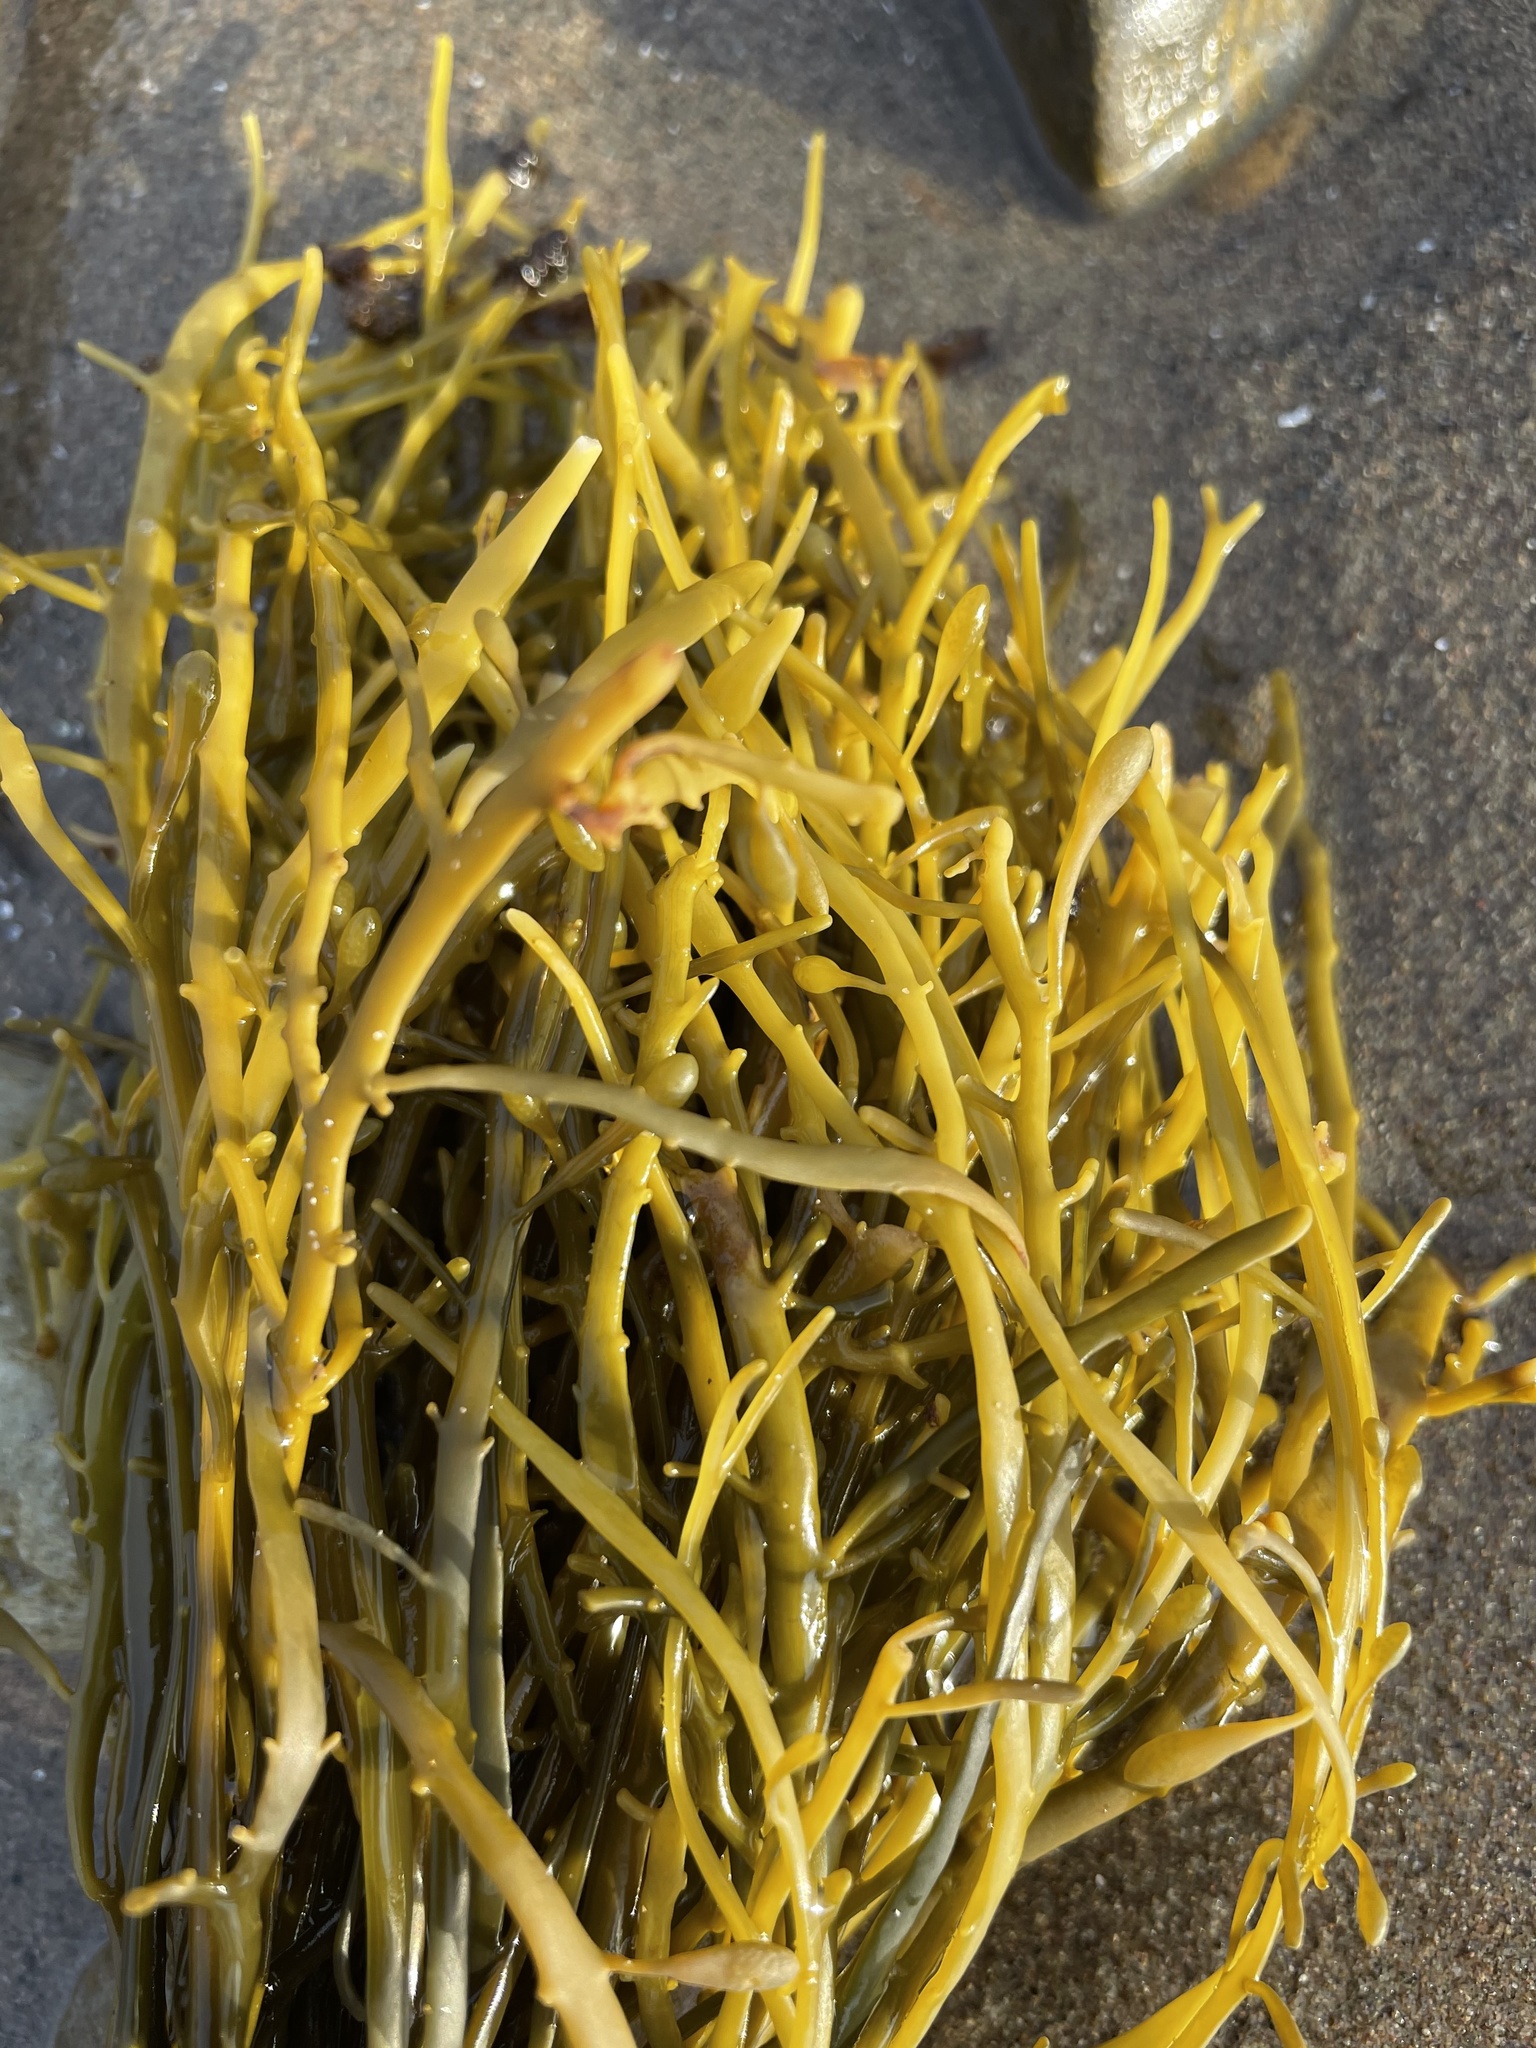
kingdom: Chromista
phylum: Ochrophyta
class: Phaeophyceae
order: Fucales
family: Fucaceae
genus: Ascophyllum
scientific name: Ascophyllum nodosum
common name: Knotted wrack
